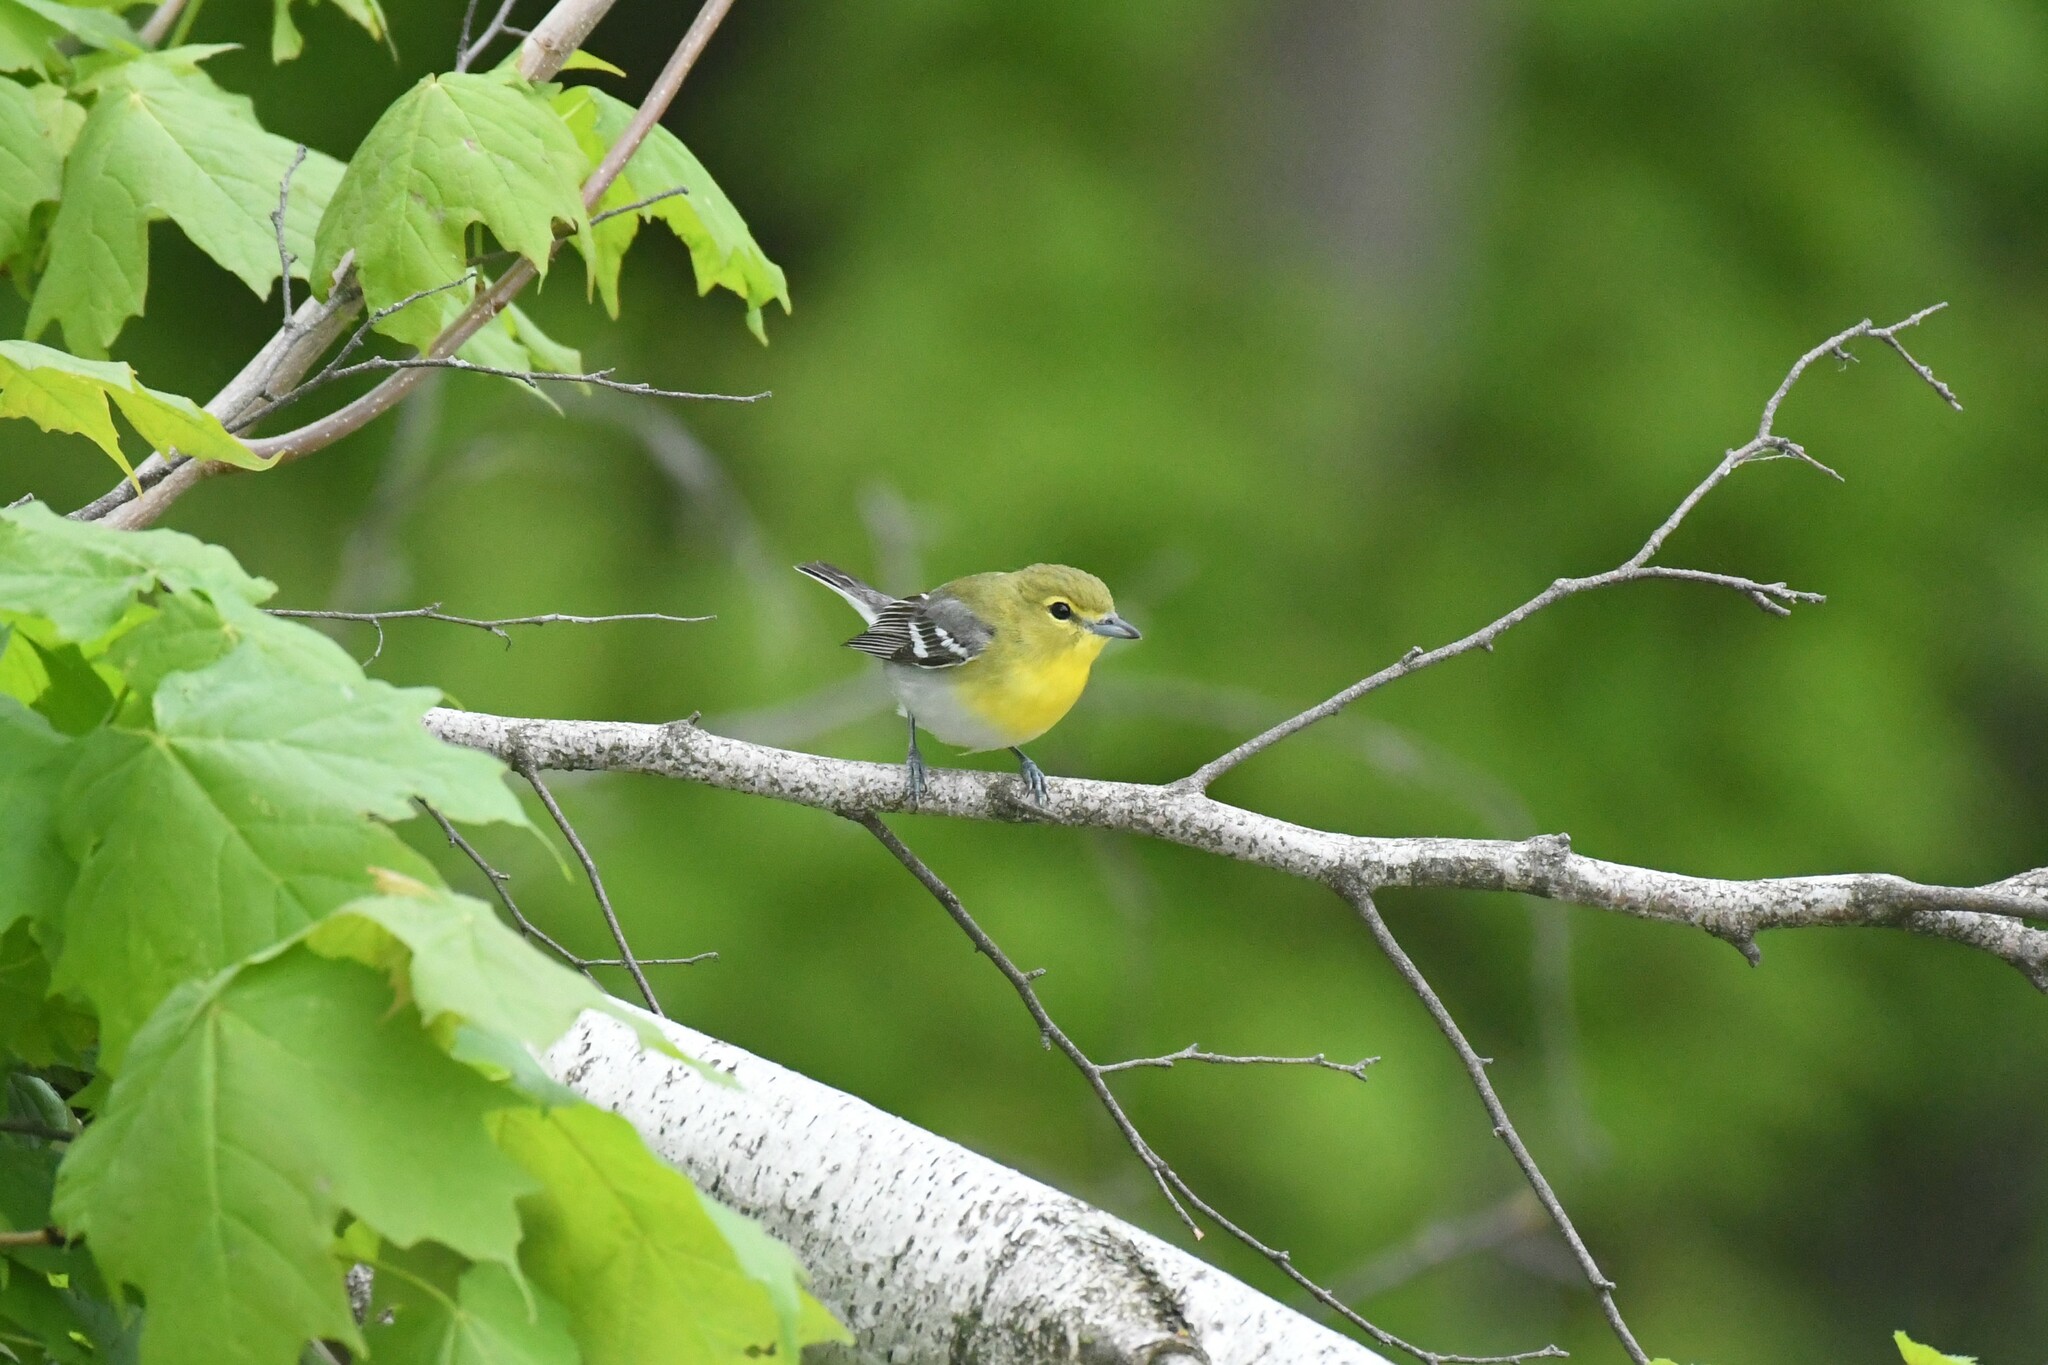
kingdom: Animalia
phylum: Chordata
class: Aves
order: Passeriformes
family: Vireonidae
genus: Vireo
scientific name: Vireo flavifrons
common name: Yellow-throated vireo
